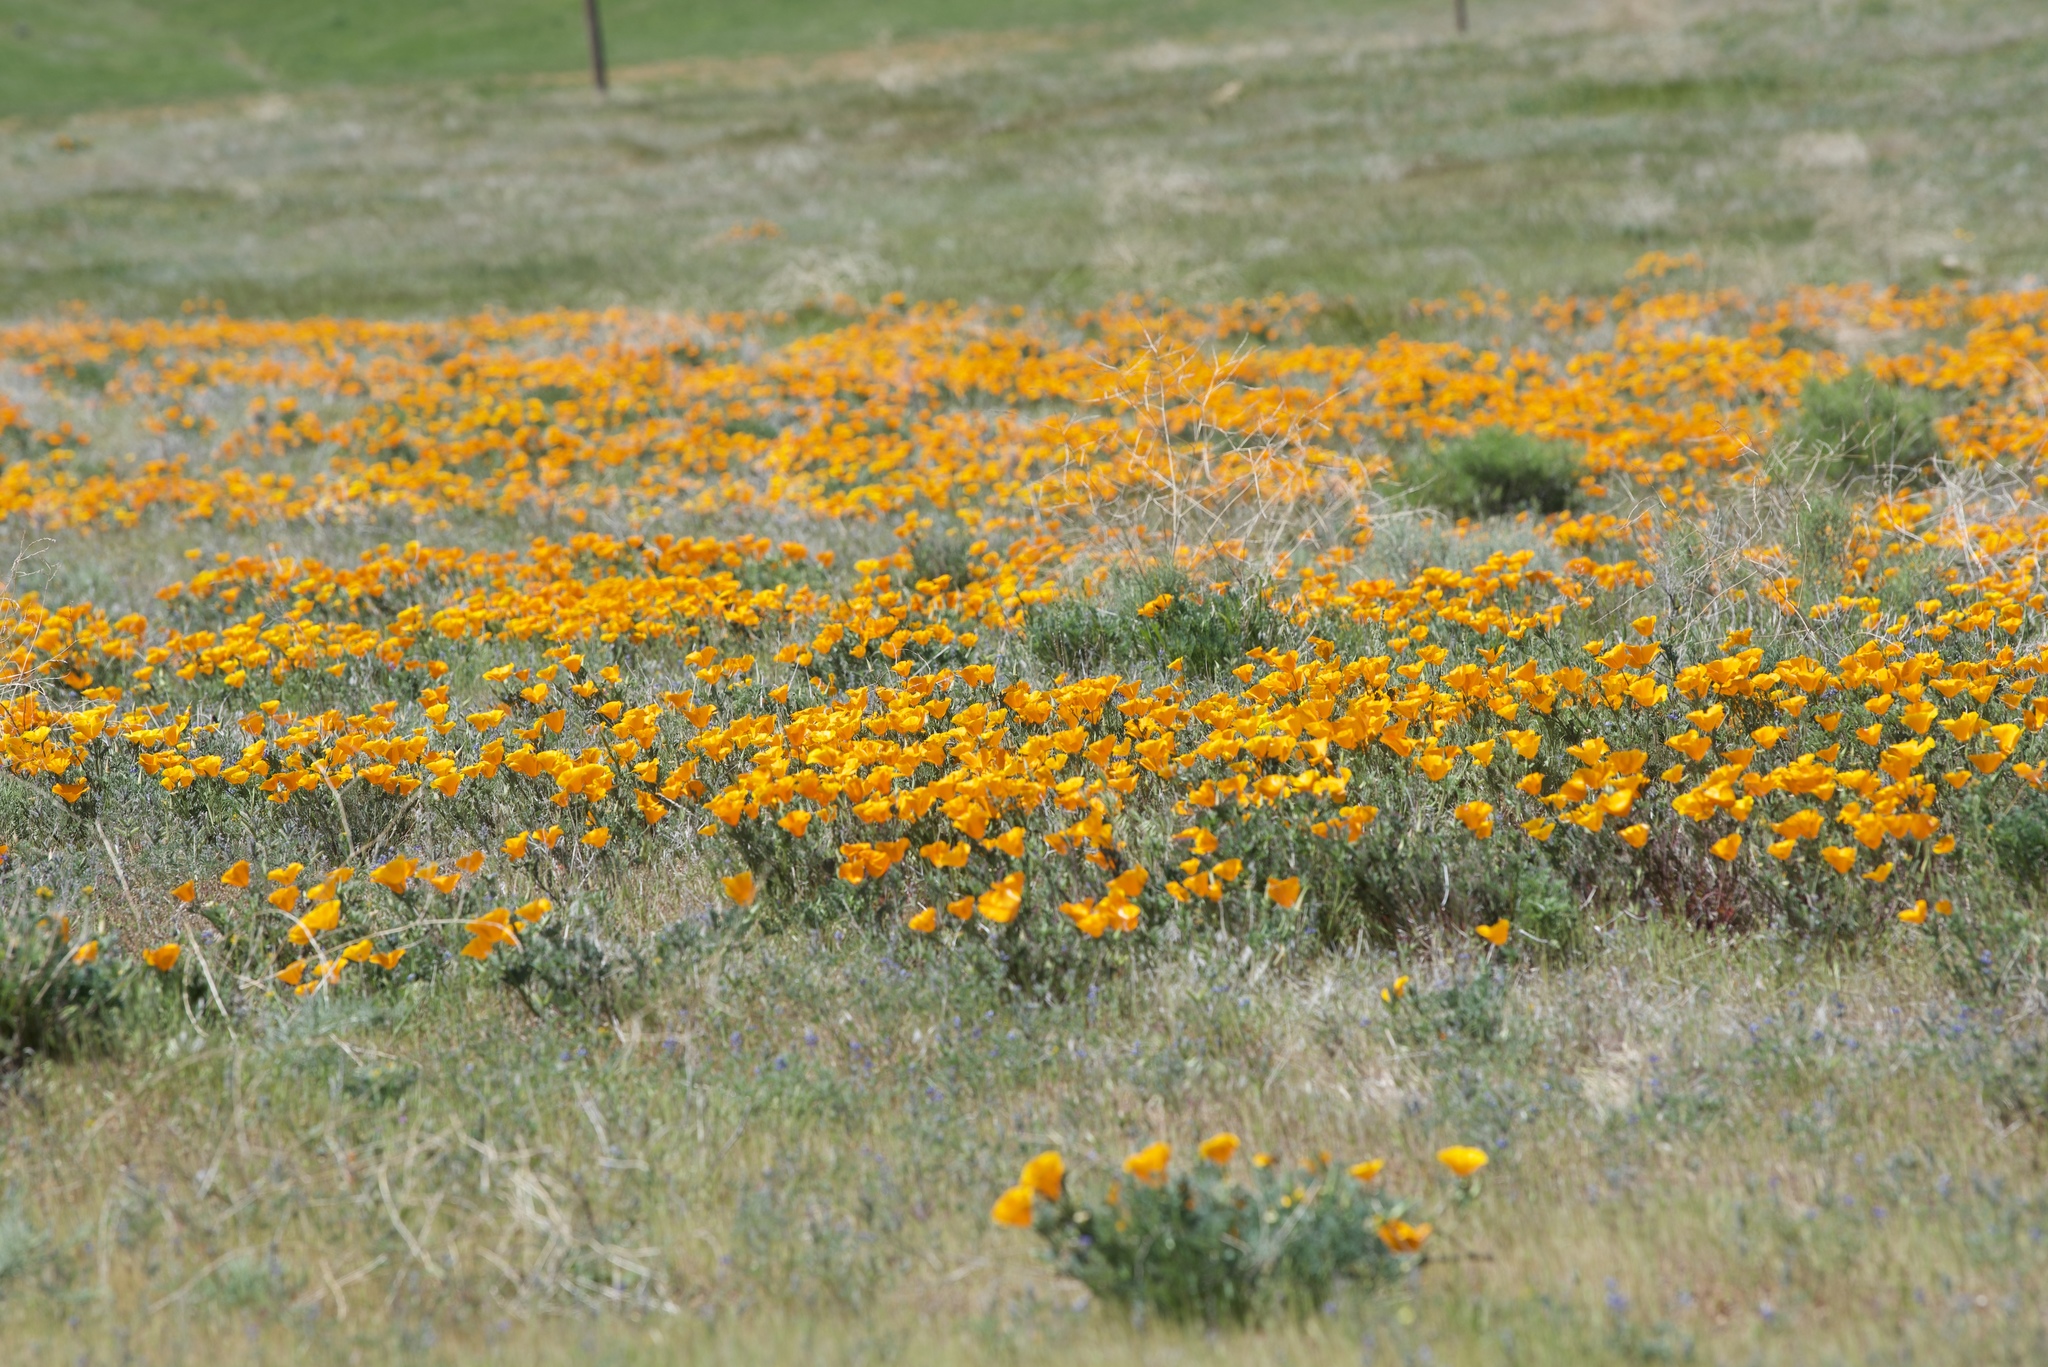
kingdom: Plantae
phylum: Tracheophyta
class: Magnoliopsida
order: Ranunculales
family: Papaveraceae
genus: Eschscholzia
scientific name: Eschscholzia californica
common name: California poppy
